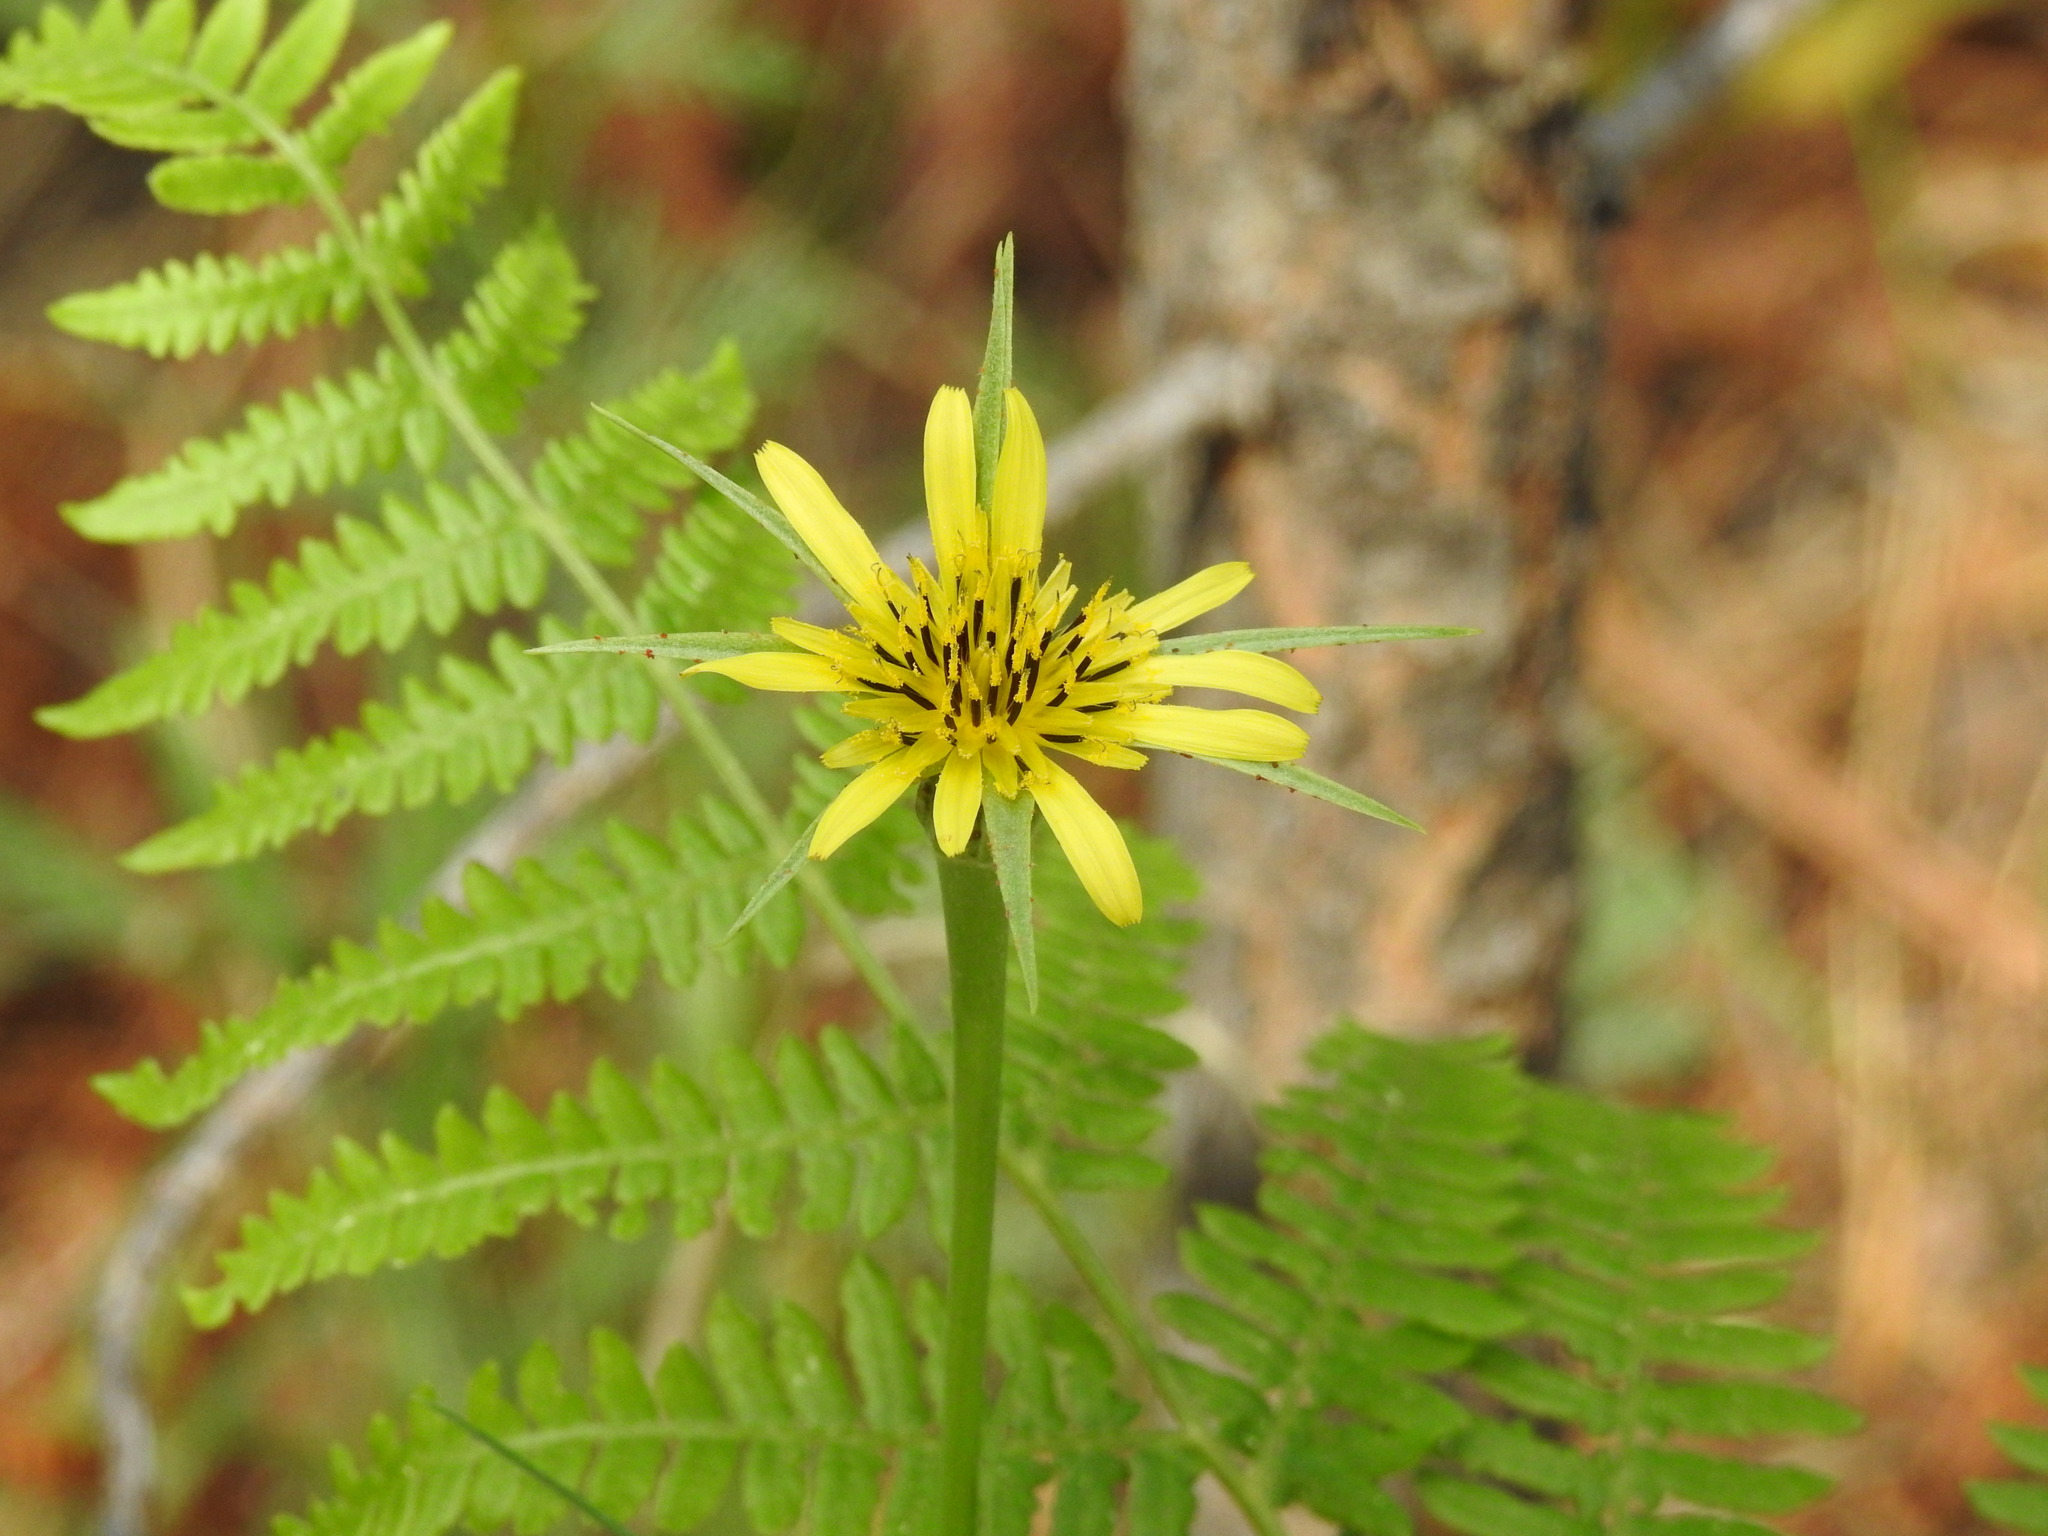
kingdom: Plantae
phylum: Tracheophyta
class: Magnoliopsida
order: Asterales
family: Asteraceae
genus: Tragopogon
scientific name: Tragopogon dubius
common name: Yellow salsify
